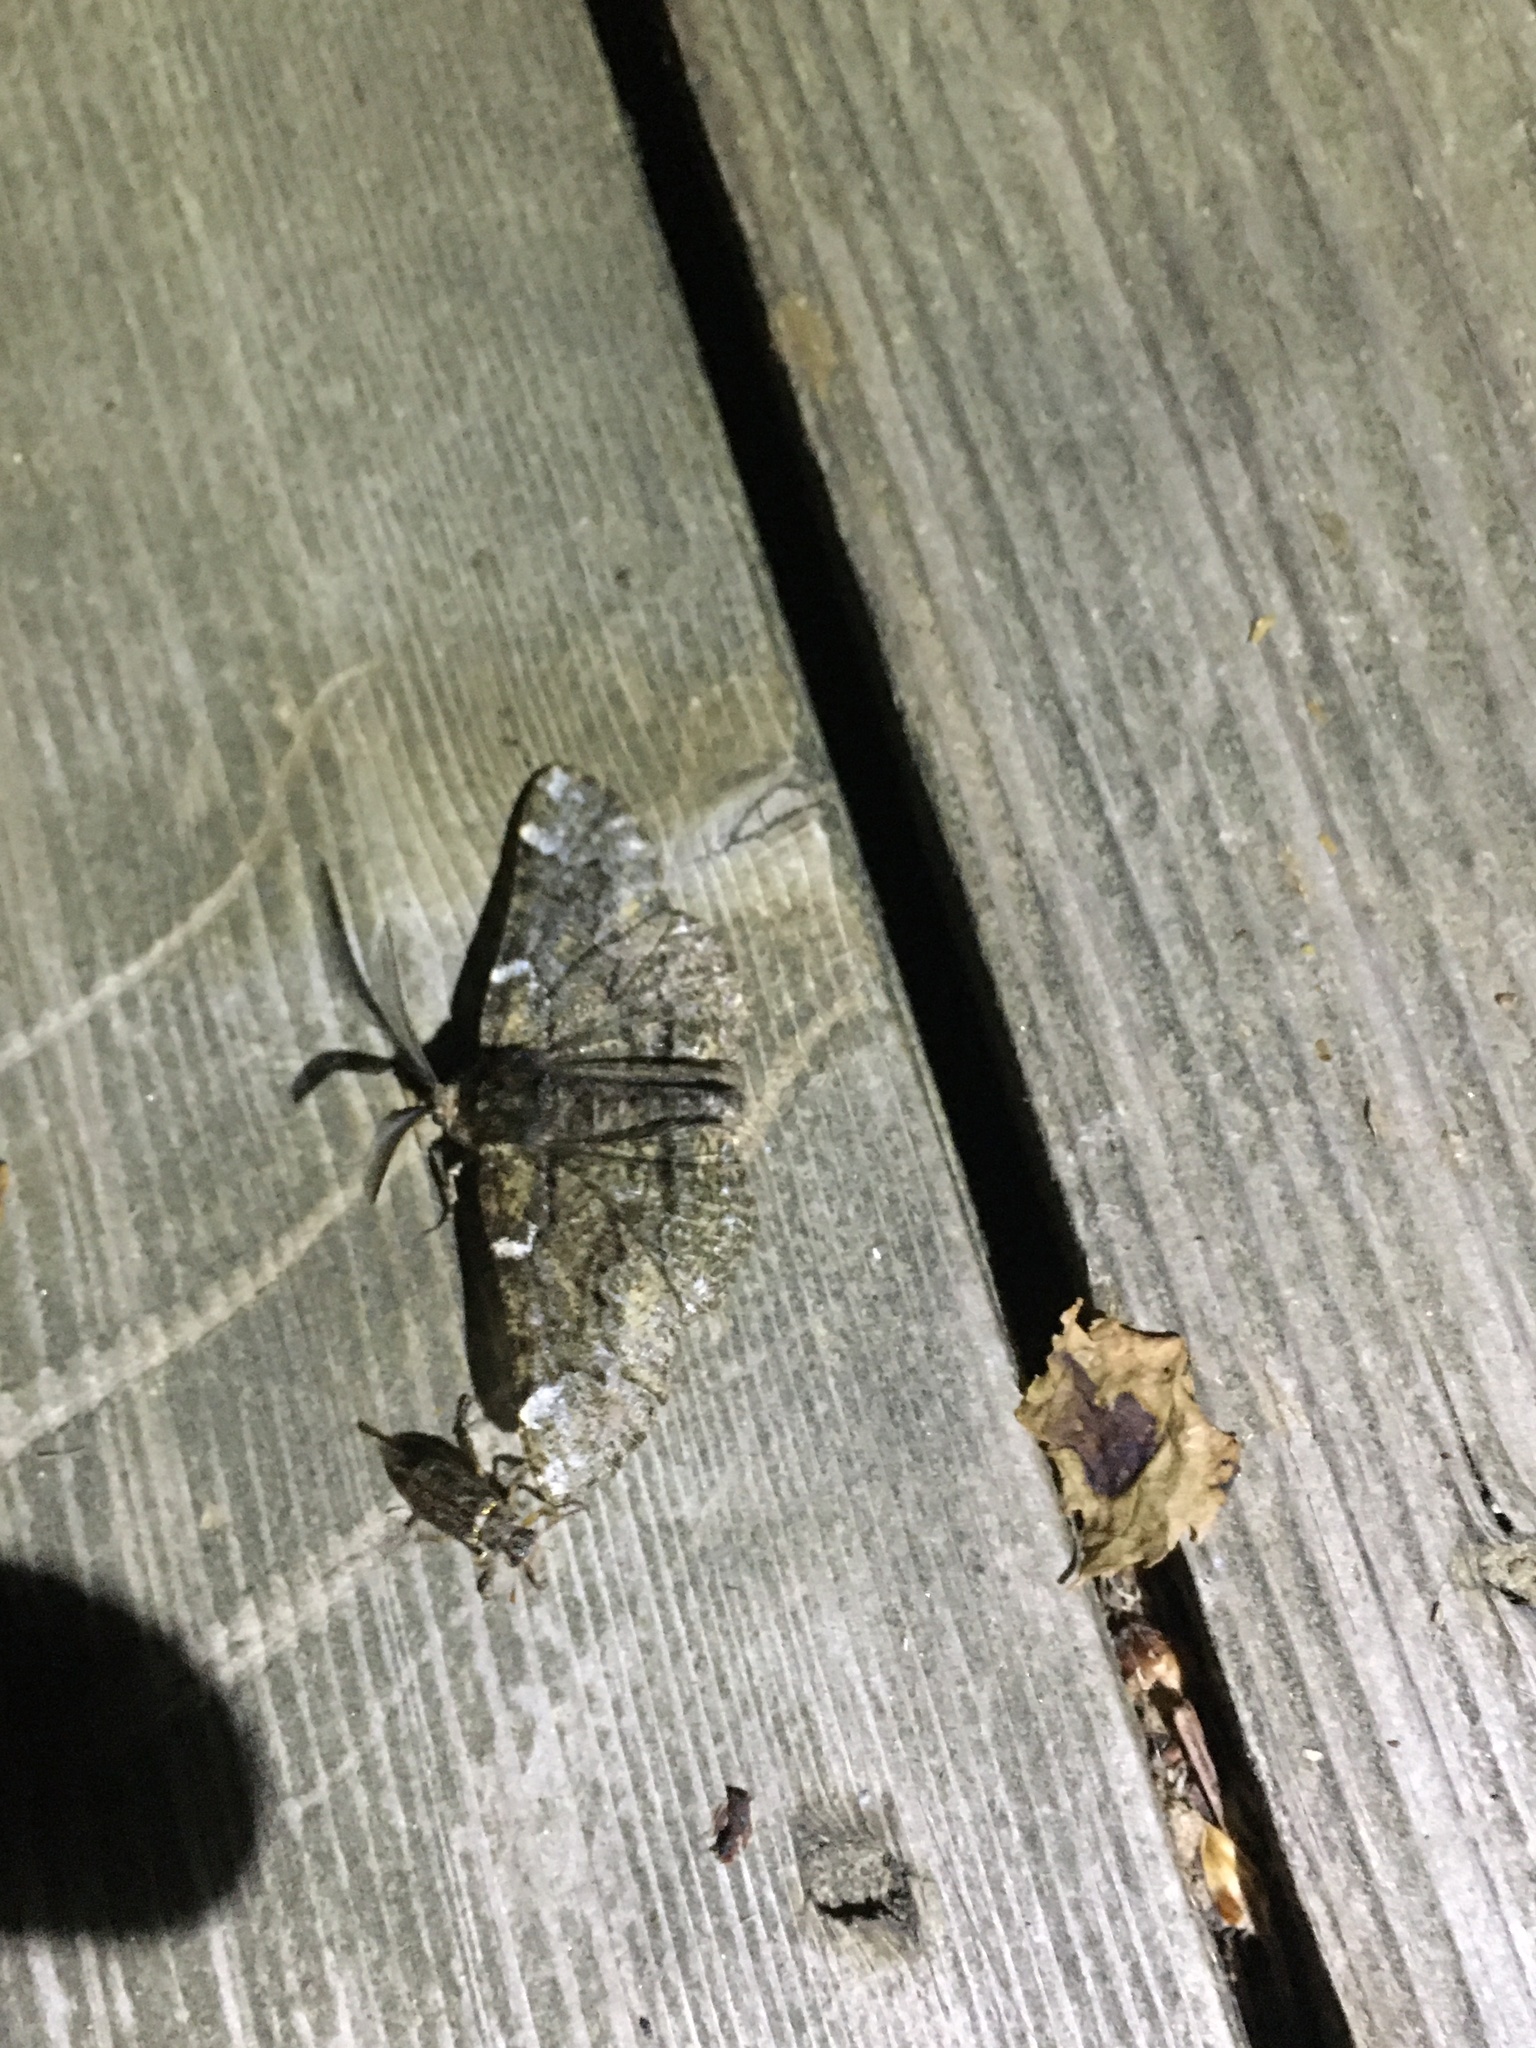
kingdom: Animalia
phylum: Arthropoda
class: Insecta
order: Lepidoptera
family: Geometridae
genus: Phaeoura
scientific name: Phaeoura quernaria
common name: Oak beauty
